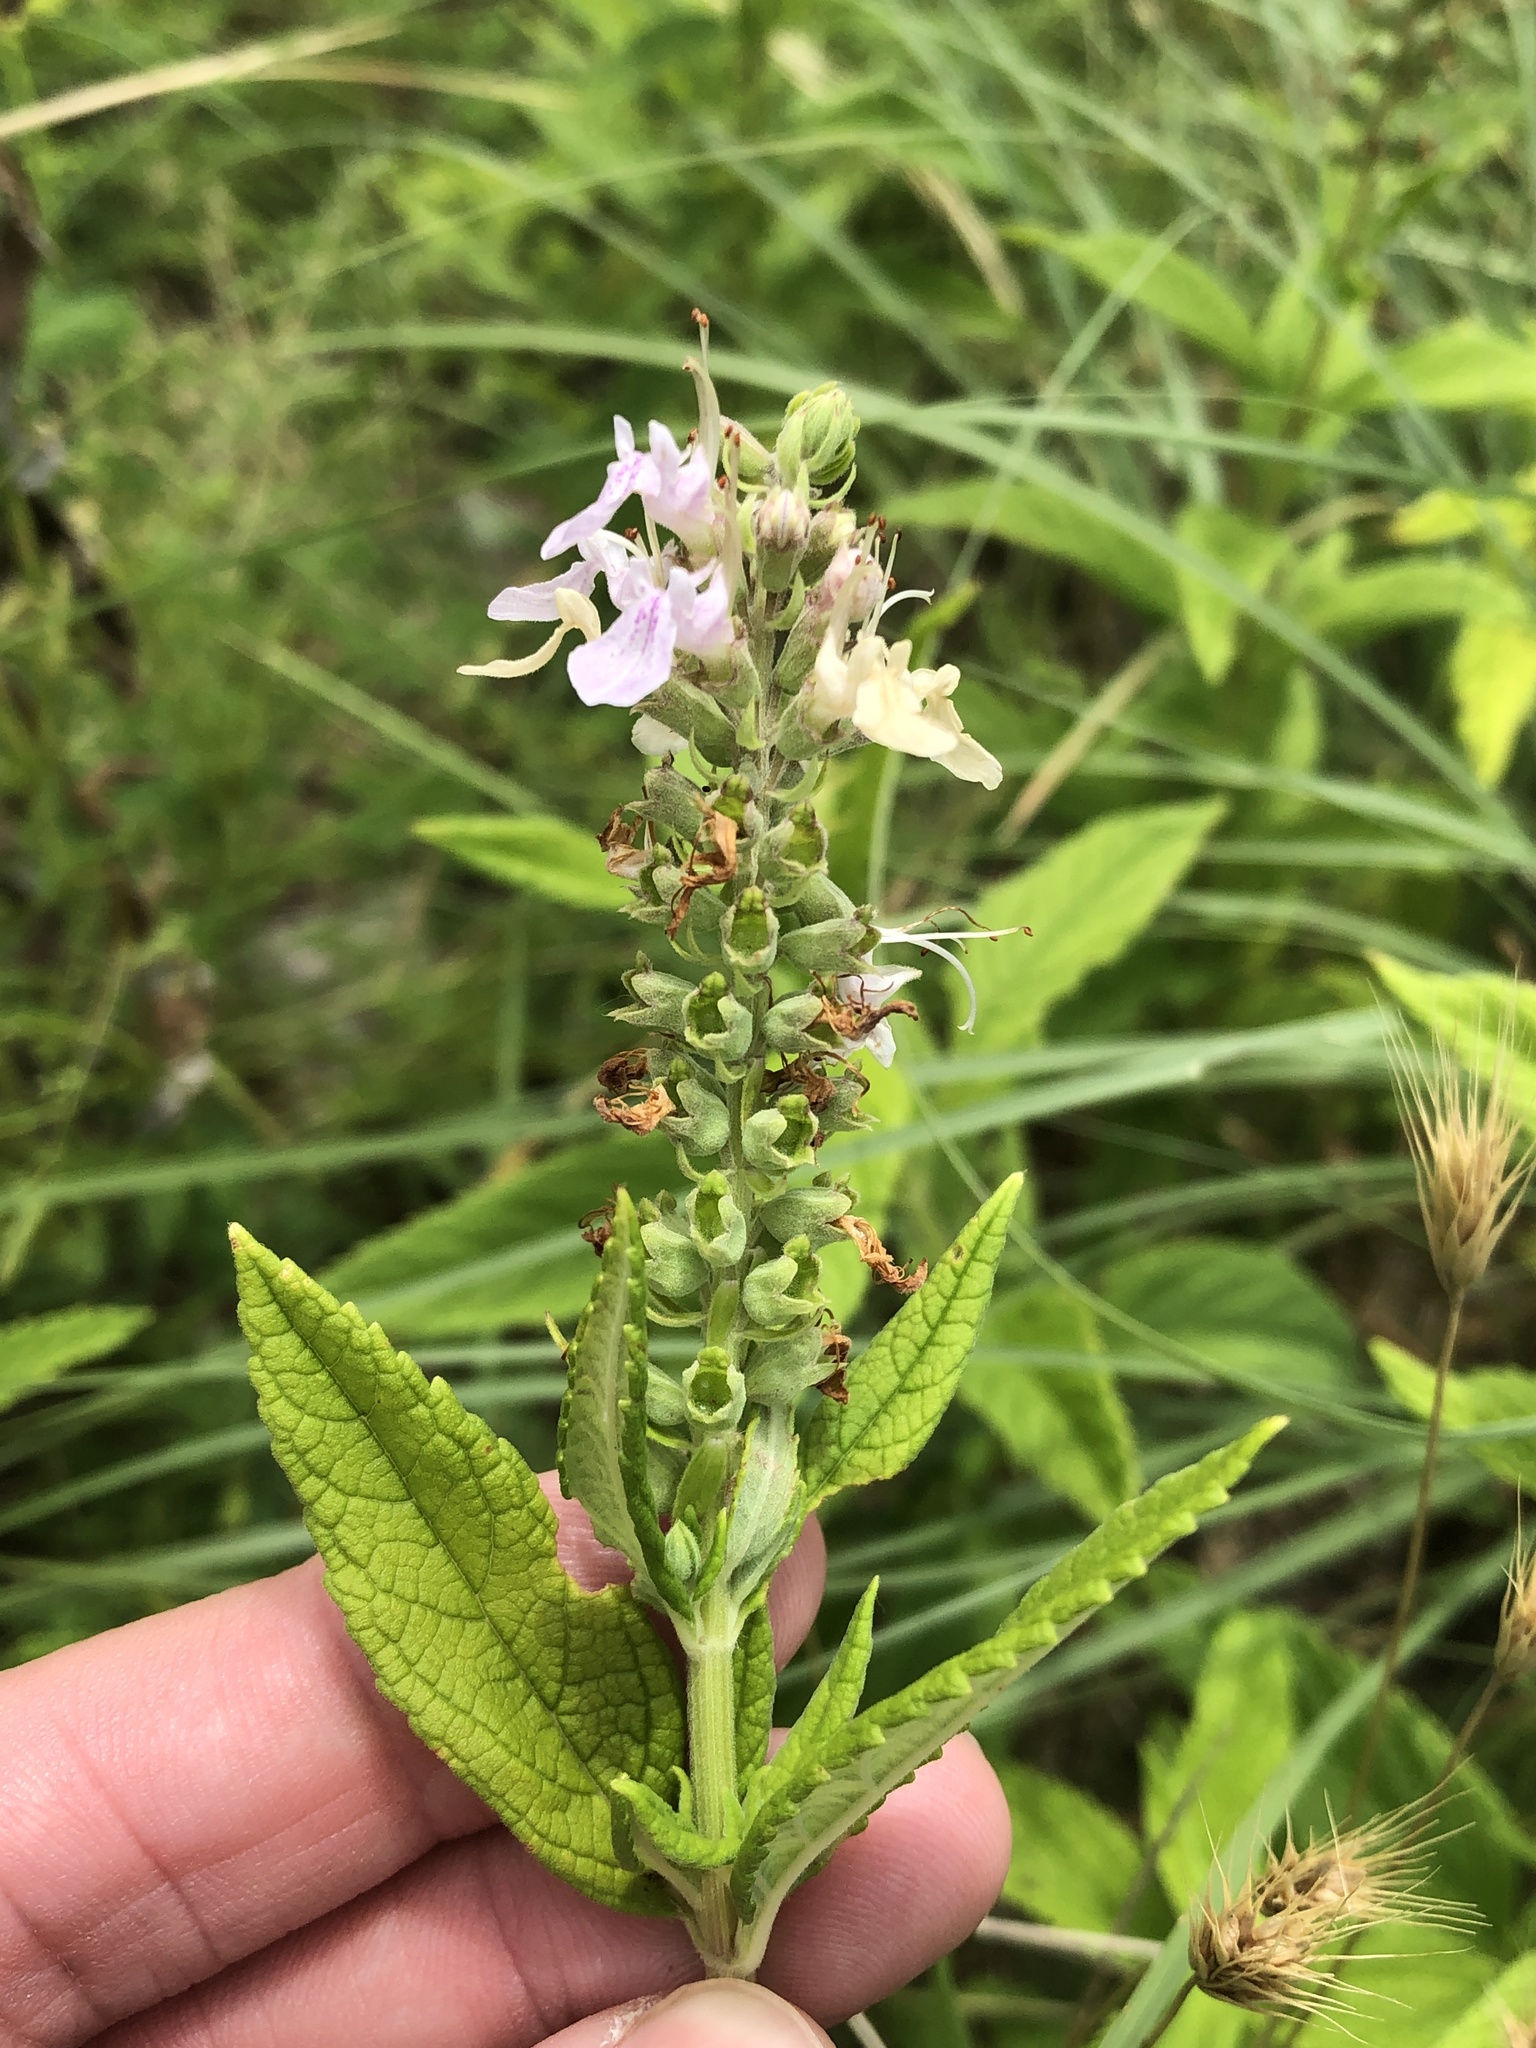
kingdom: Plantae
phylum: Tracheophyta
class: Magnoliopsida
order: Lamiales
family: Lamiaceae
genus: Teucrium
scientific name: Teucrium canadense
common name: American germander
